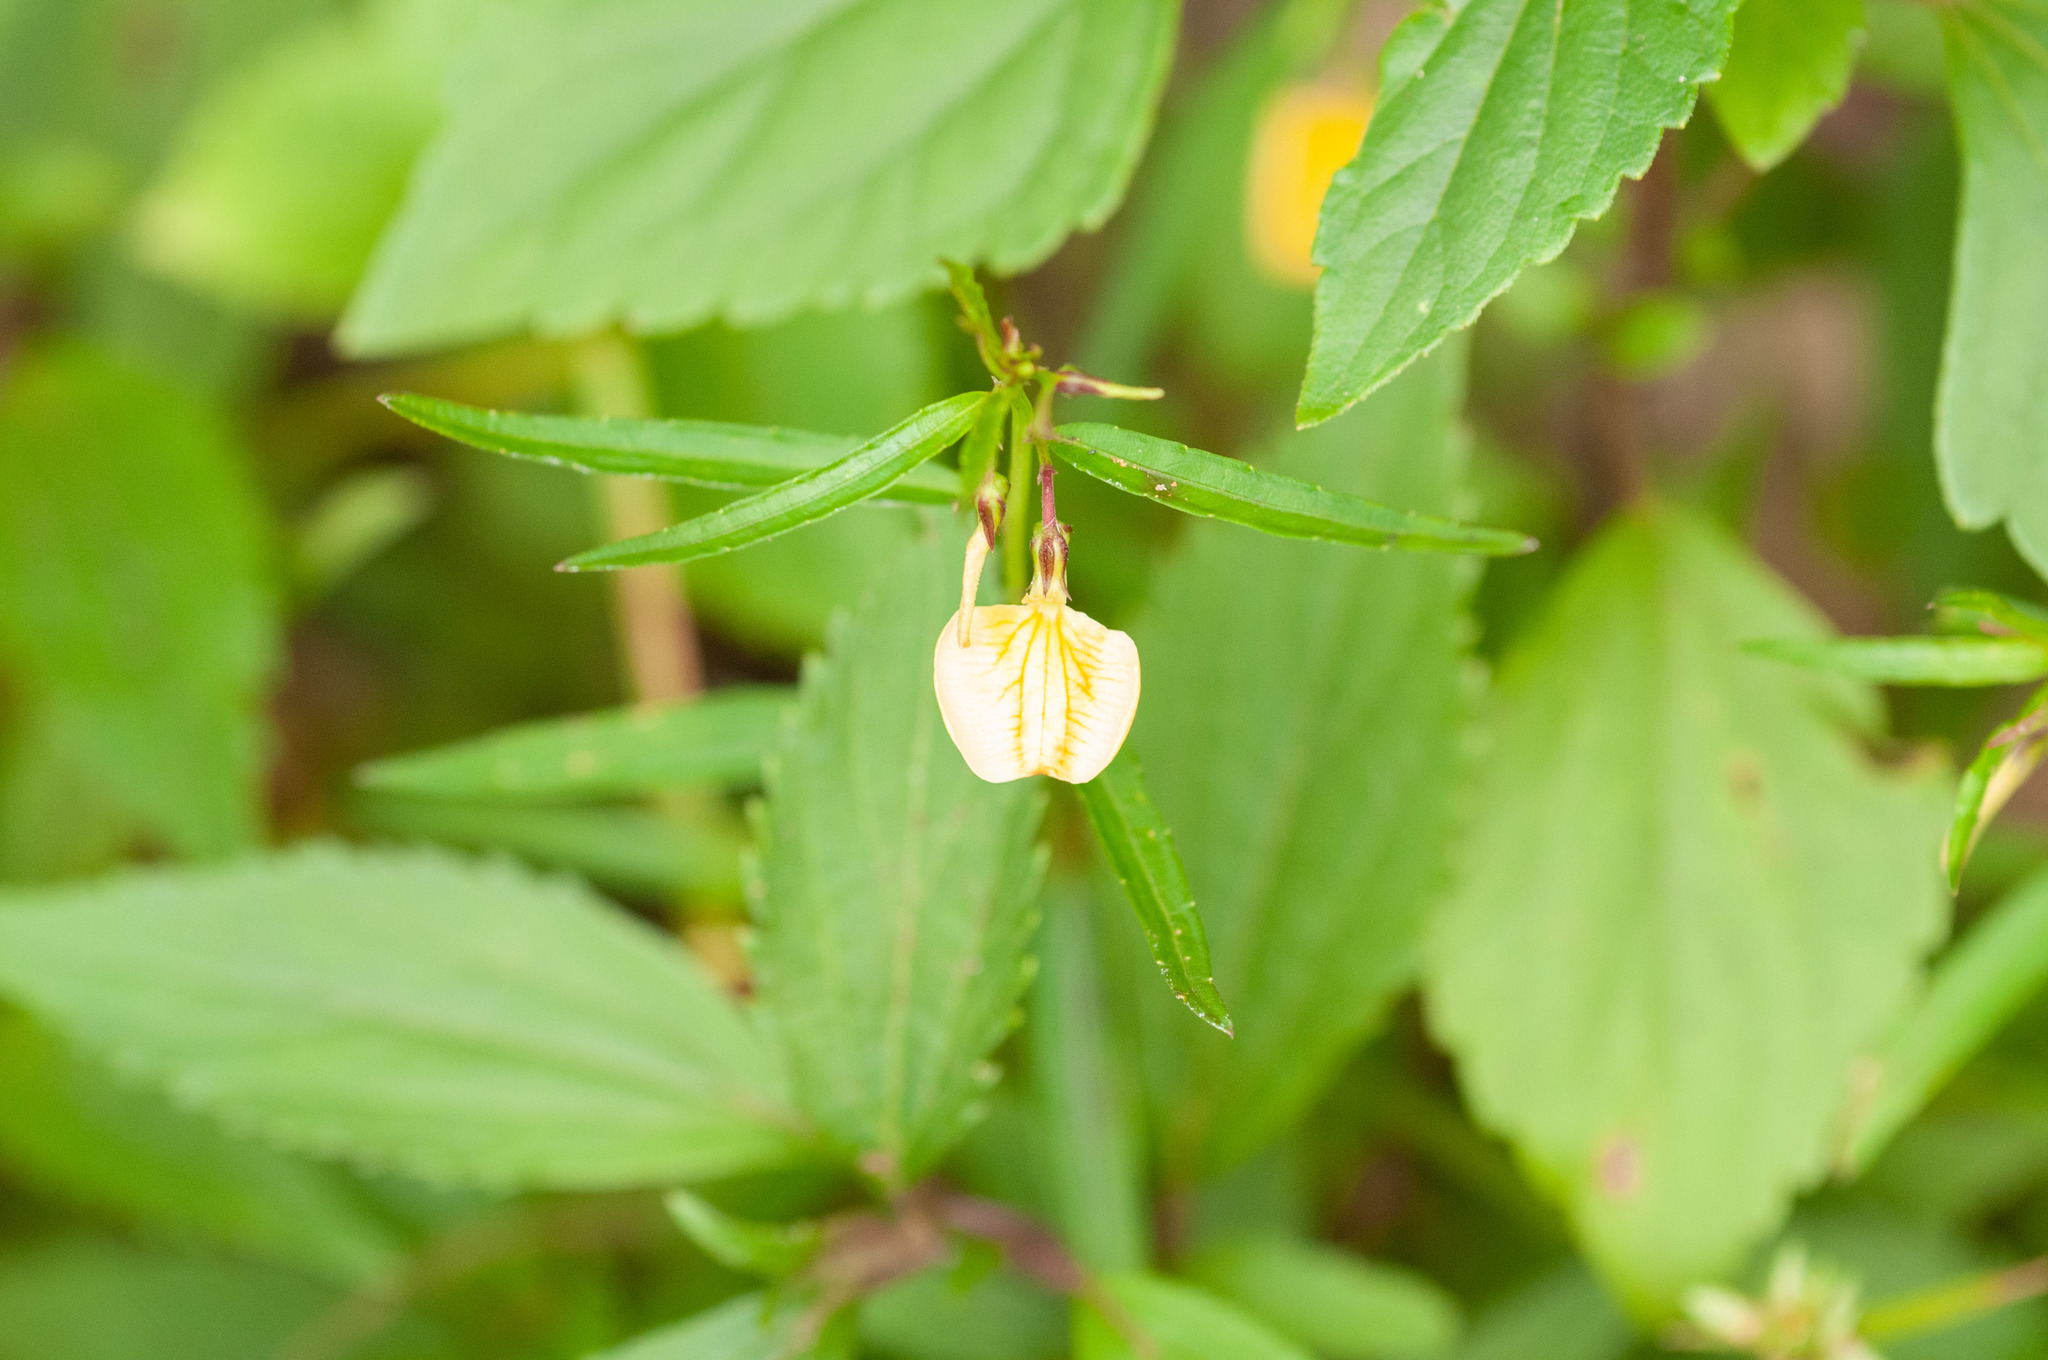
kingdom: Plantae
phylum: Tracheophyta
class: Magnoliopsida
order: Malpighiales
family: Violaceae
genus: Pigea
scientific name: Pigea stellarioides
